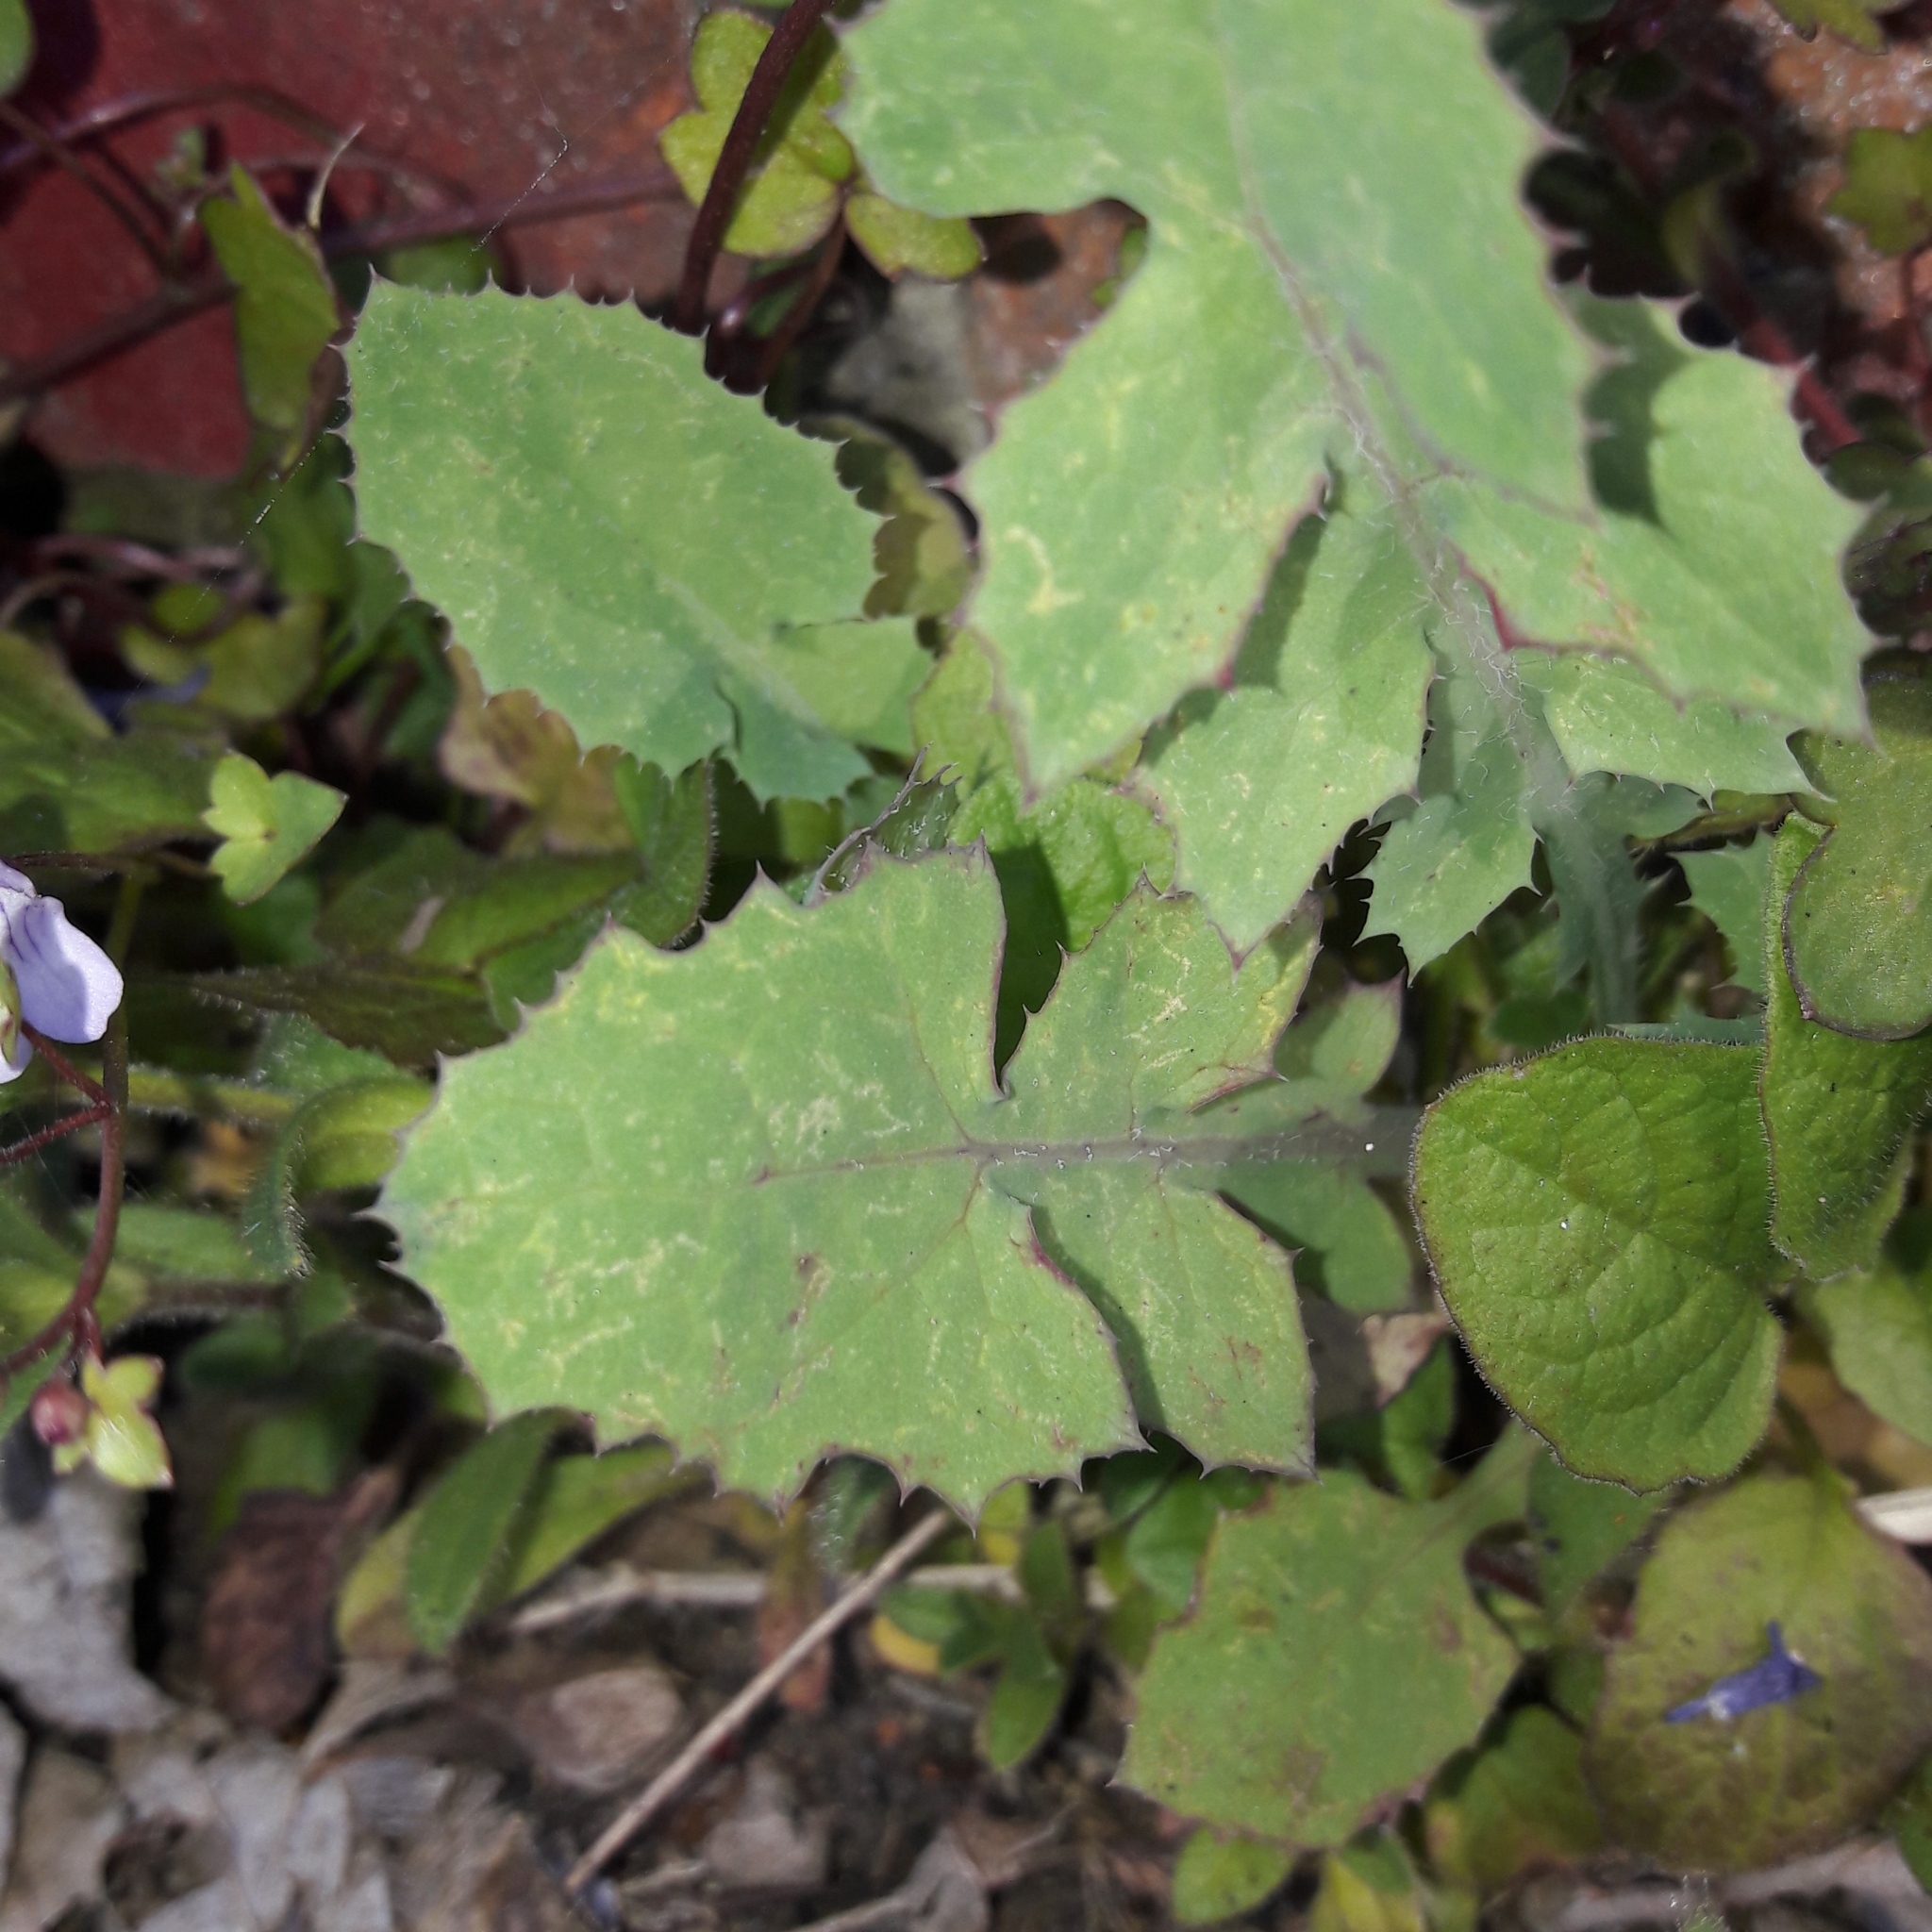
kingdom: Plantae
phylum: Tracheophyta
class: Magnoliopsida
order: Asterales
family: Asteraceae
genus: Sonchus
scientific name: Sonchus oleraceus
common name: Common sowthistle
